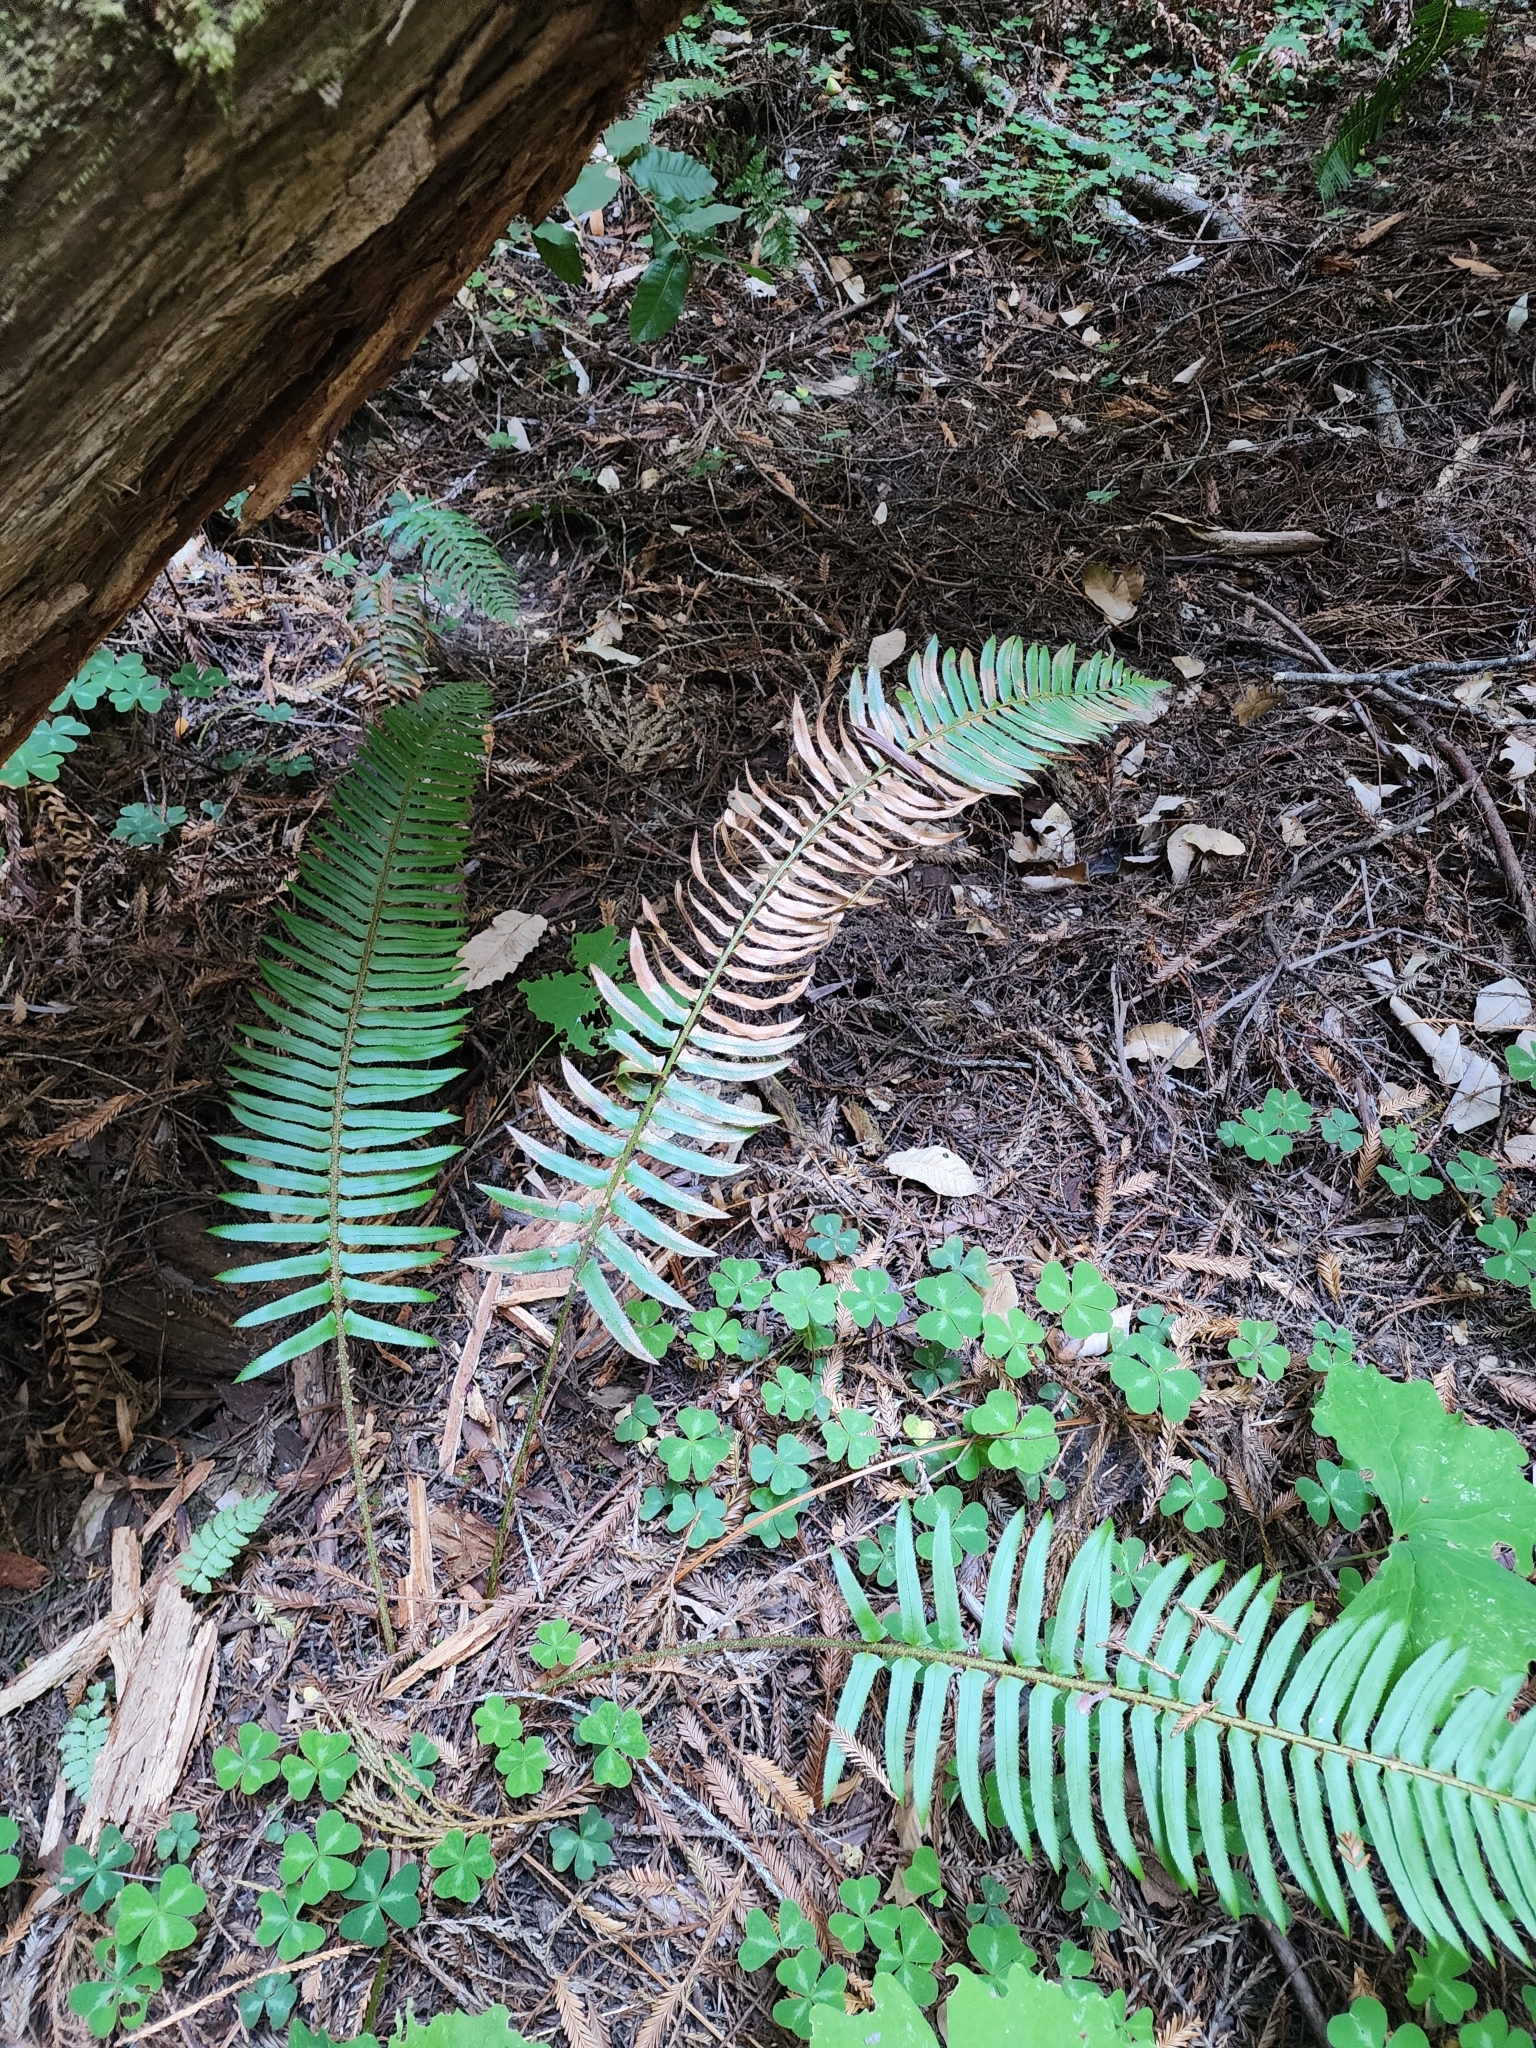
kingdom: Plantae
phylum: Tracheophyta
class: Polypodiopsida
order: Polypodiales
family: Dryopteridaceae
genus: Polystichum
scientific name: Polystichum munitum
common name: Western sword-fern
